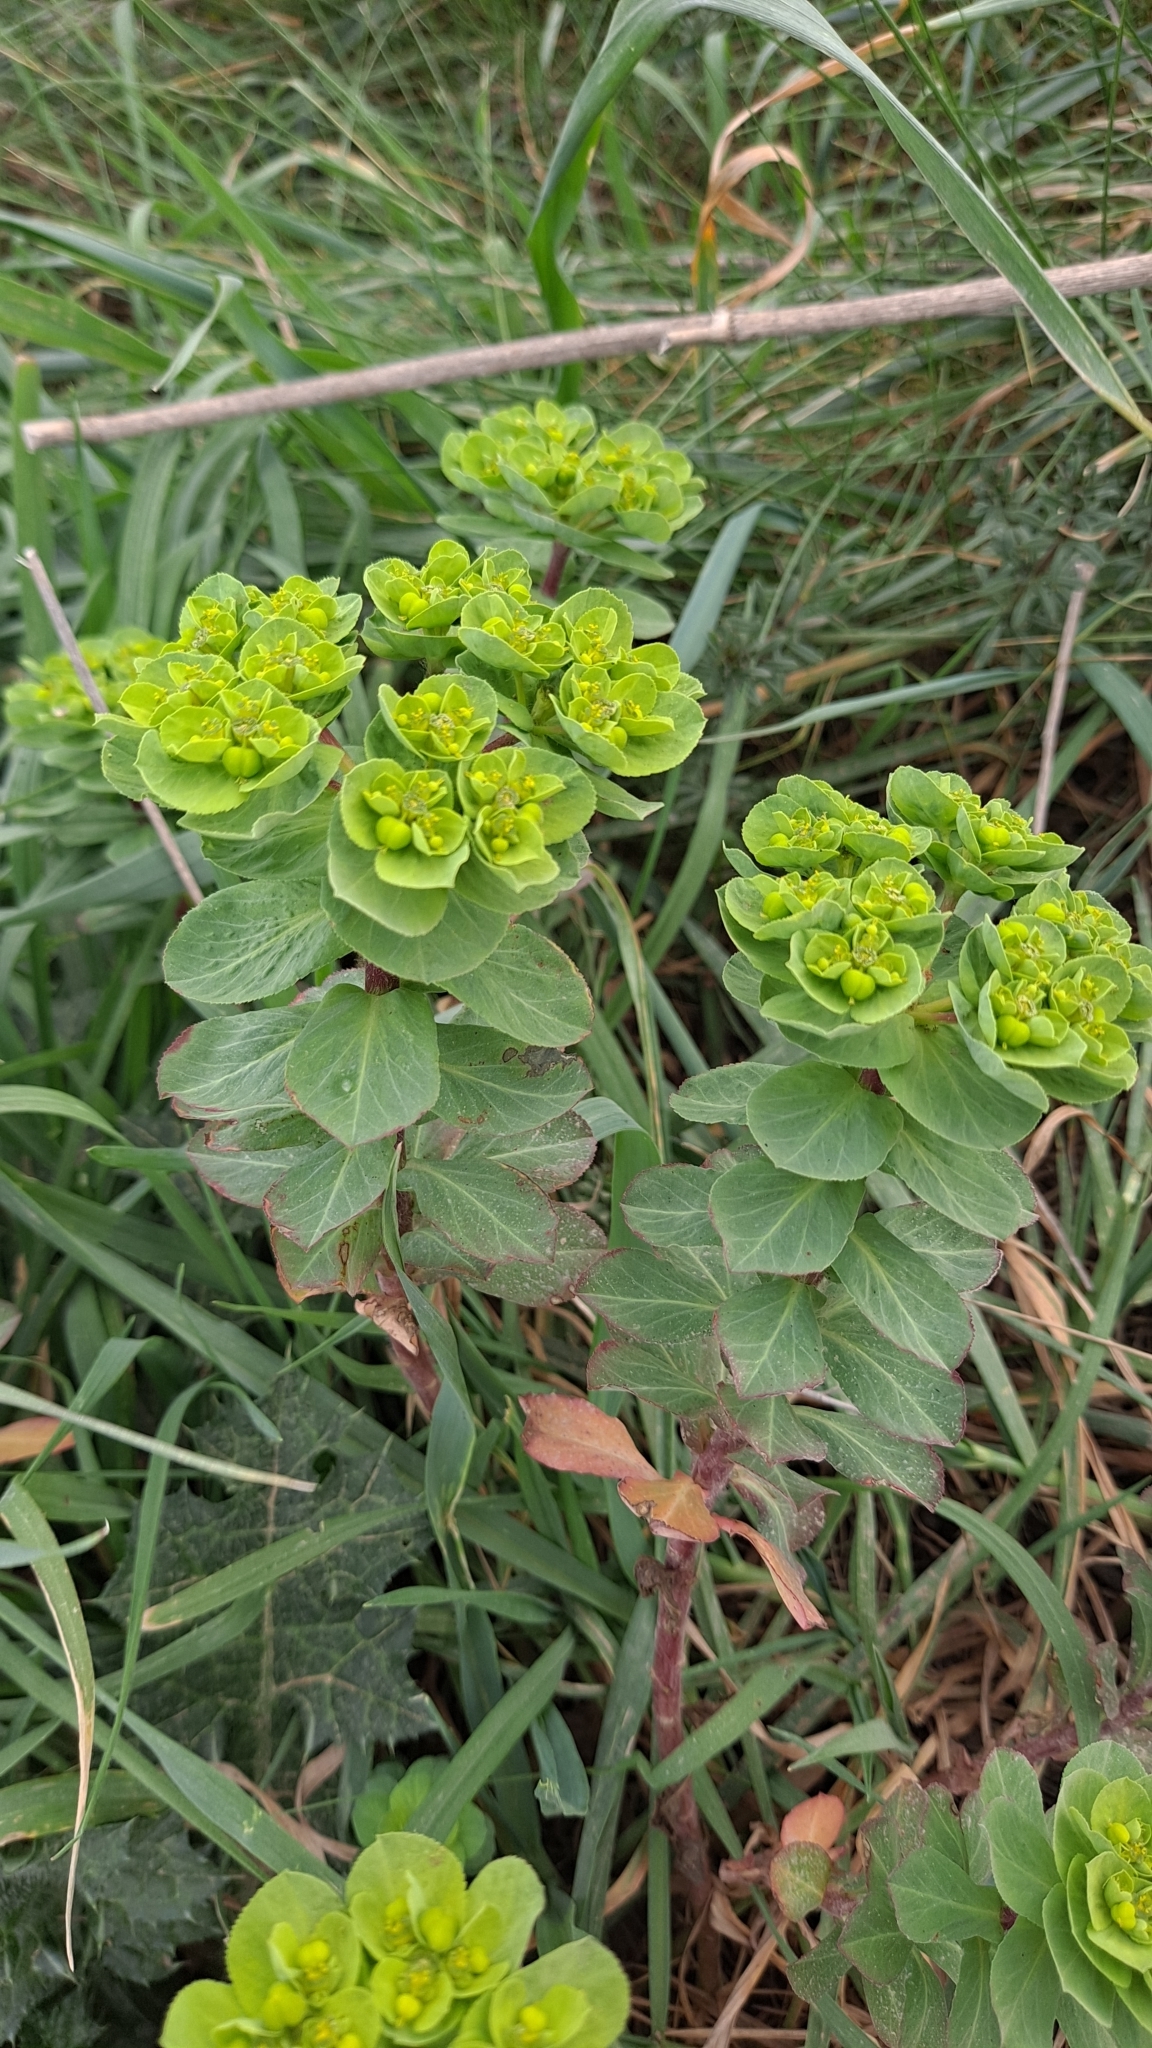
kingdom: Plantae
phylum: Tracheophyta
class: Magnoliopsida
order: Malpighiales
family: Euphorbiaceae
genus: Euphorbia
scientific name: Euphorbia helioscopia
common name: Sun spurge
